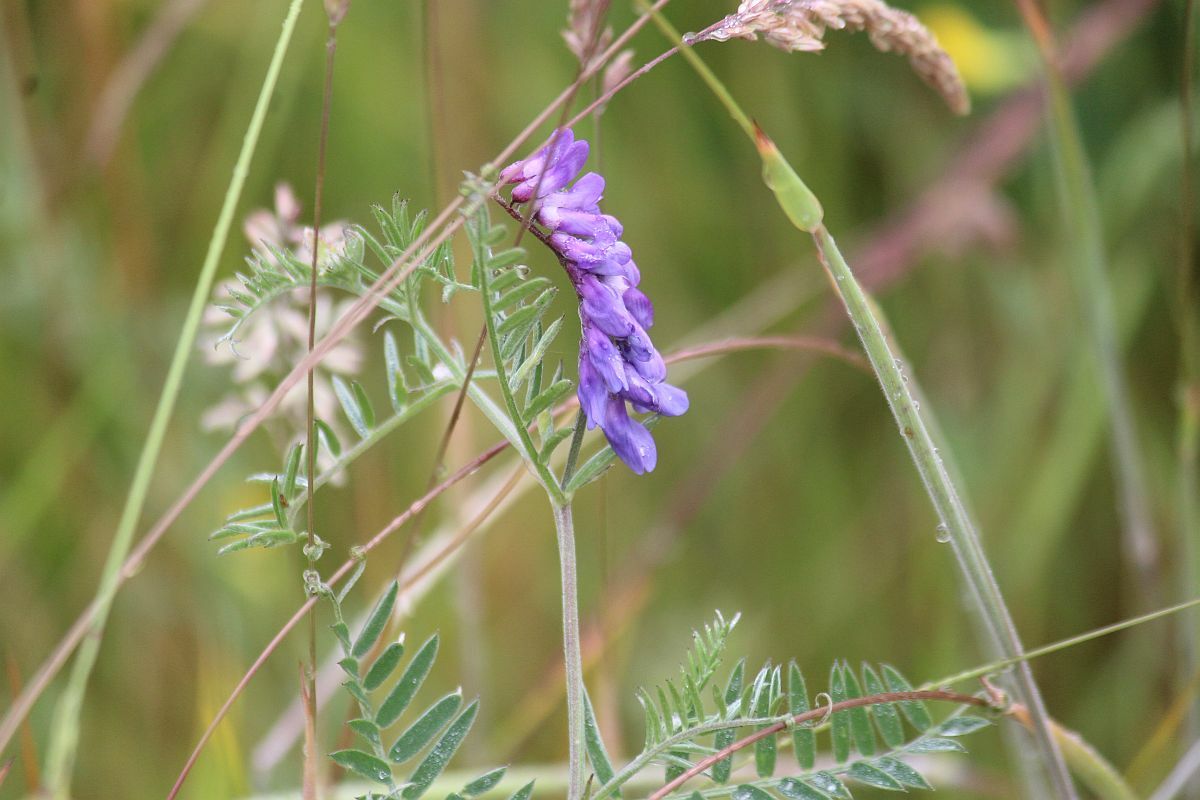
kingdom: Plantae
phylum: Tracheophyta
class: Magnoliopsida
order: Fabales
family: Fabaceae
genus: Vicia
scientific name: Vicia cracca
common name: Bird vetch
